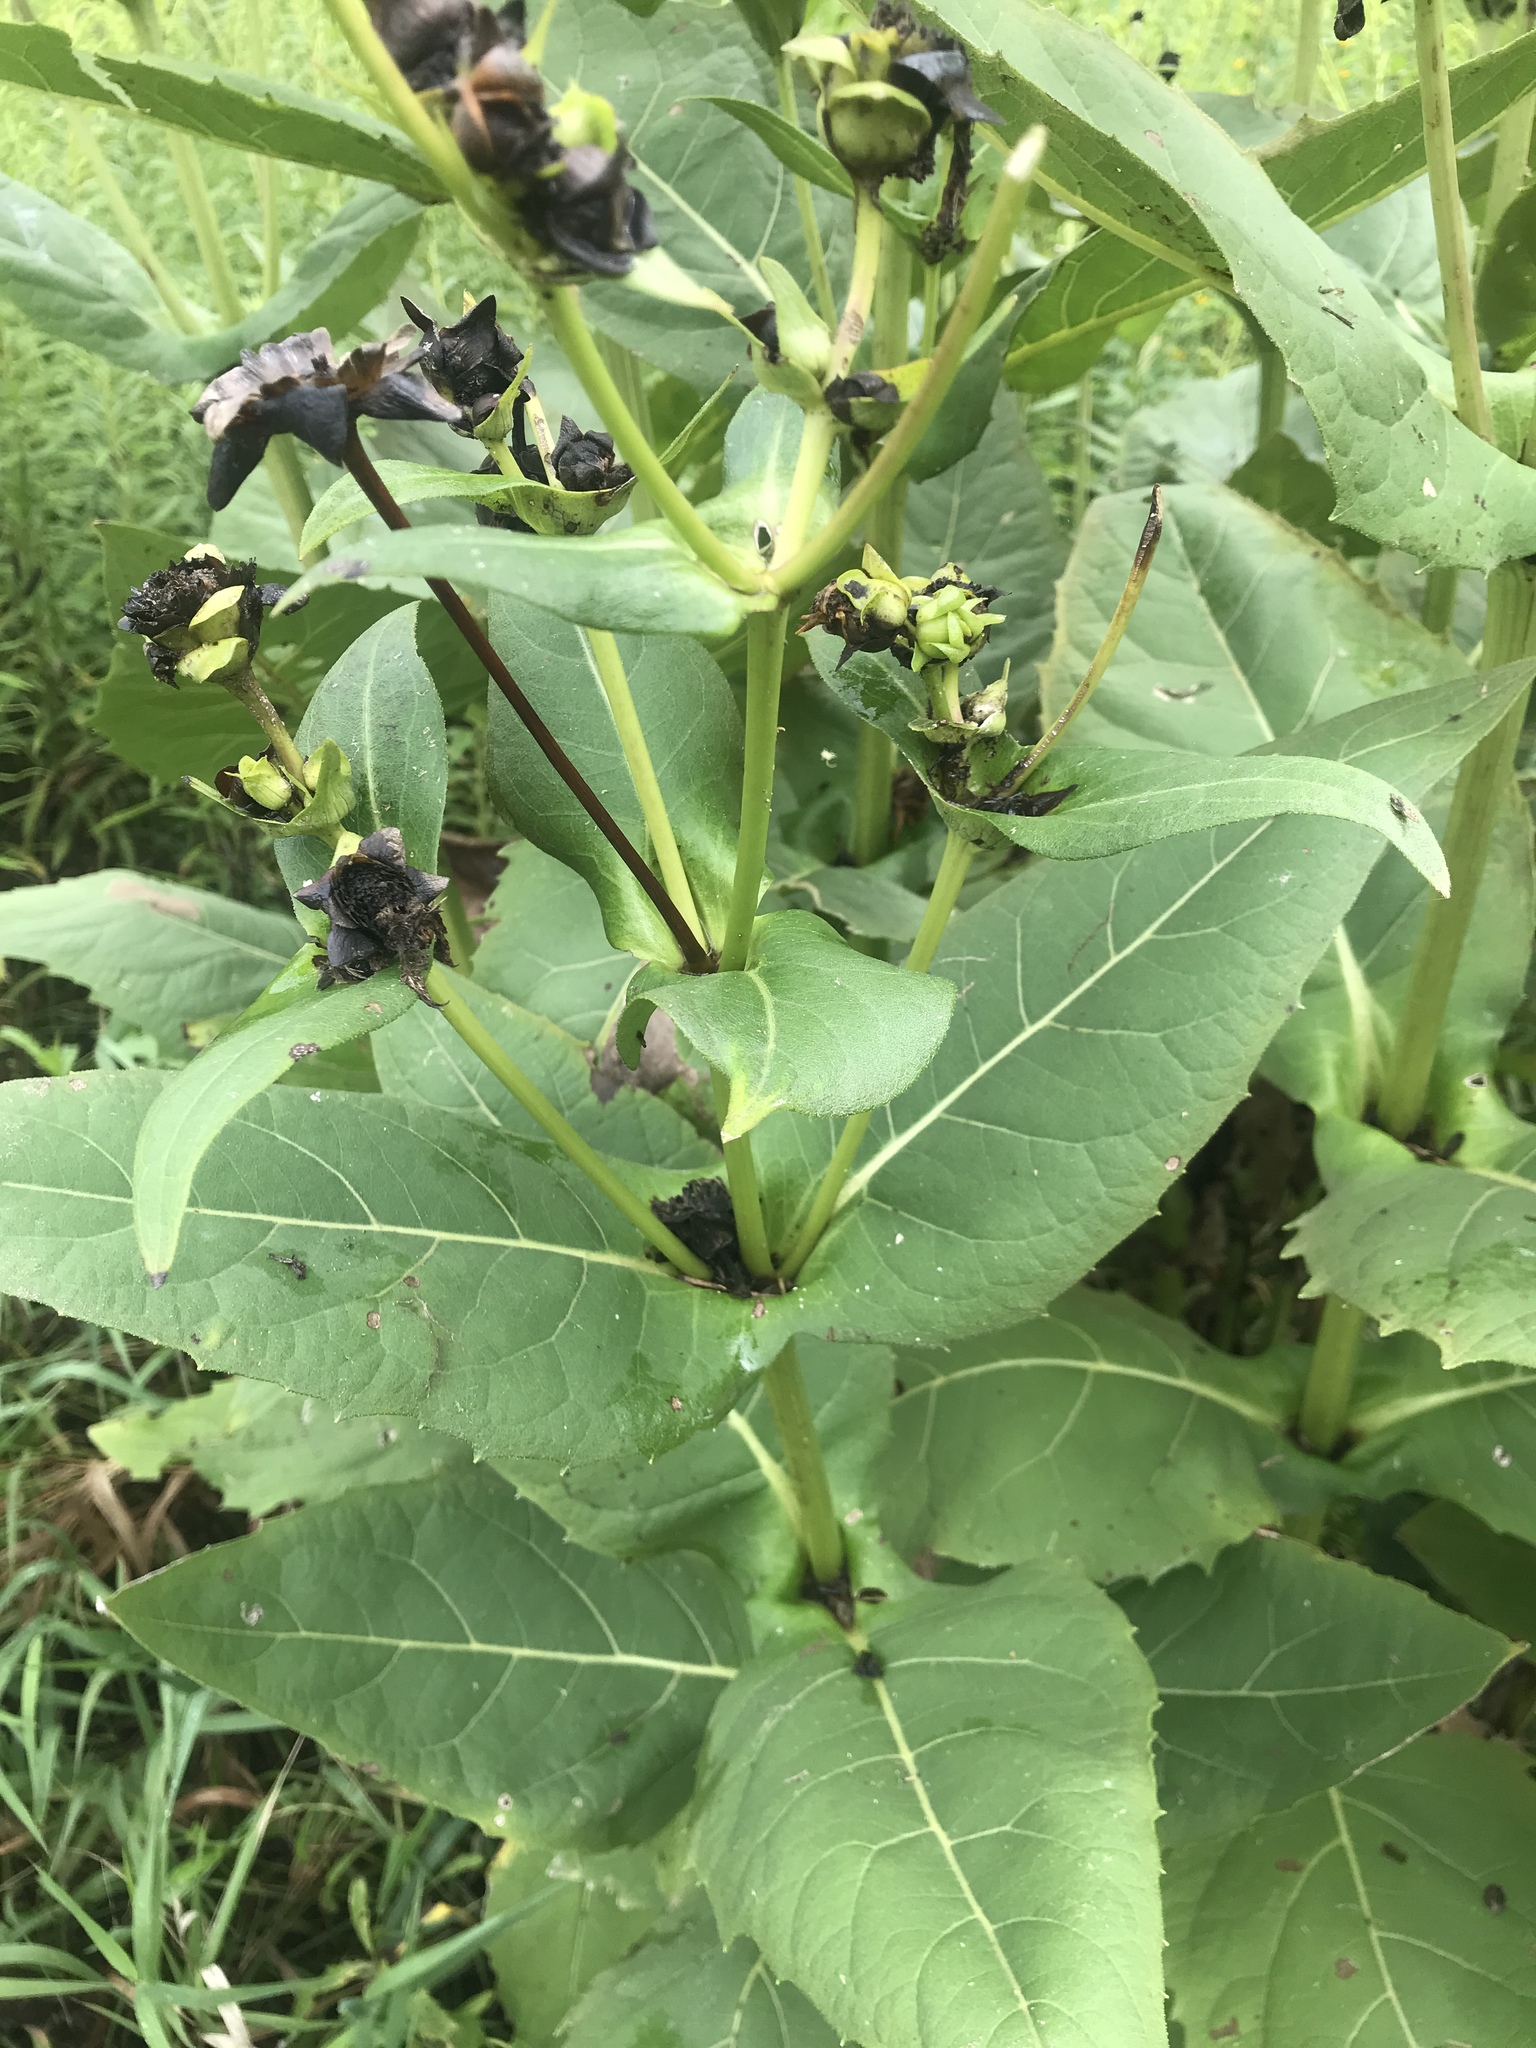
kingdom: Plantae
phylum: Tracheophyta
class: Magnoliopsida
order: Asterales
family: Asteraceae
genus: Silphium
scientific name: Silphium perfoliatum
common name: Cup-plant
